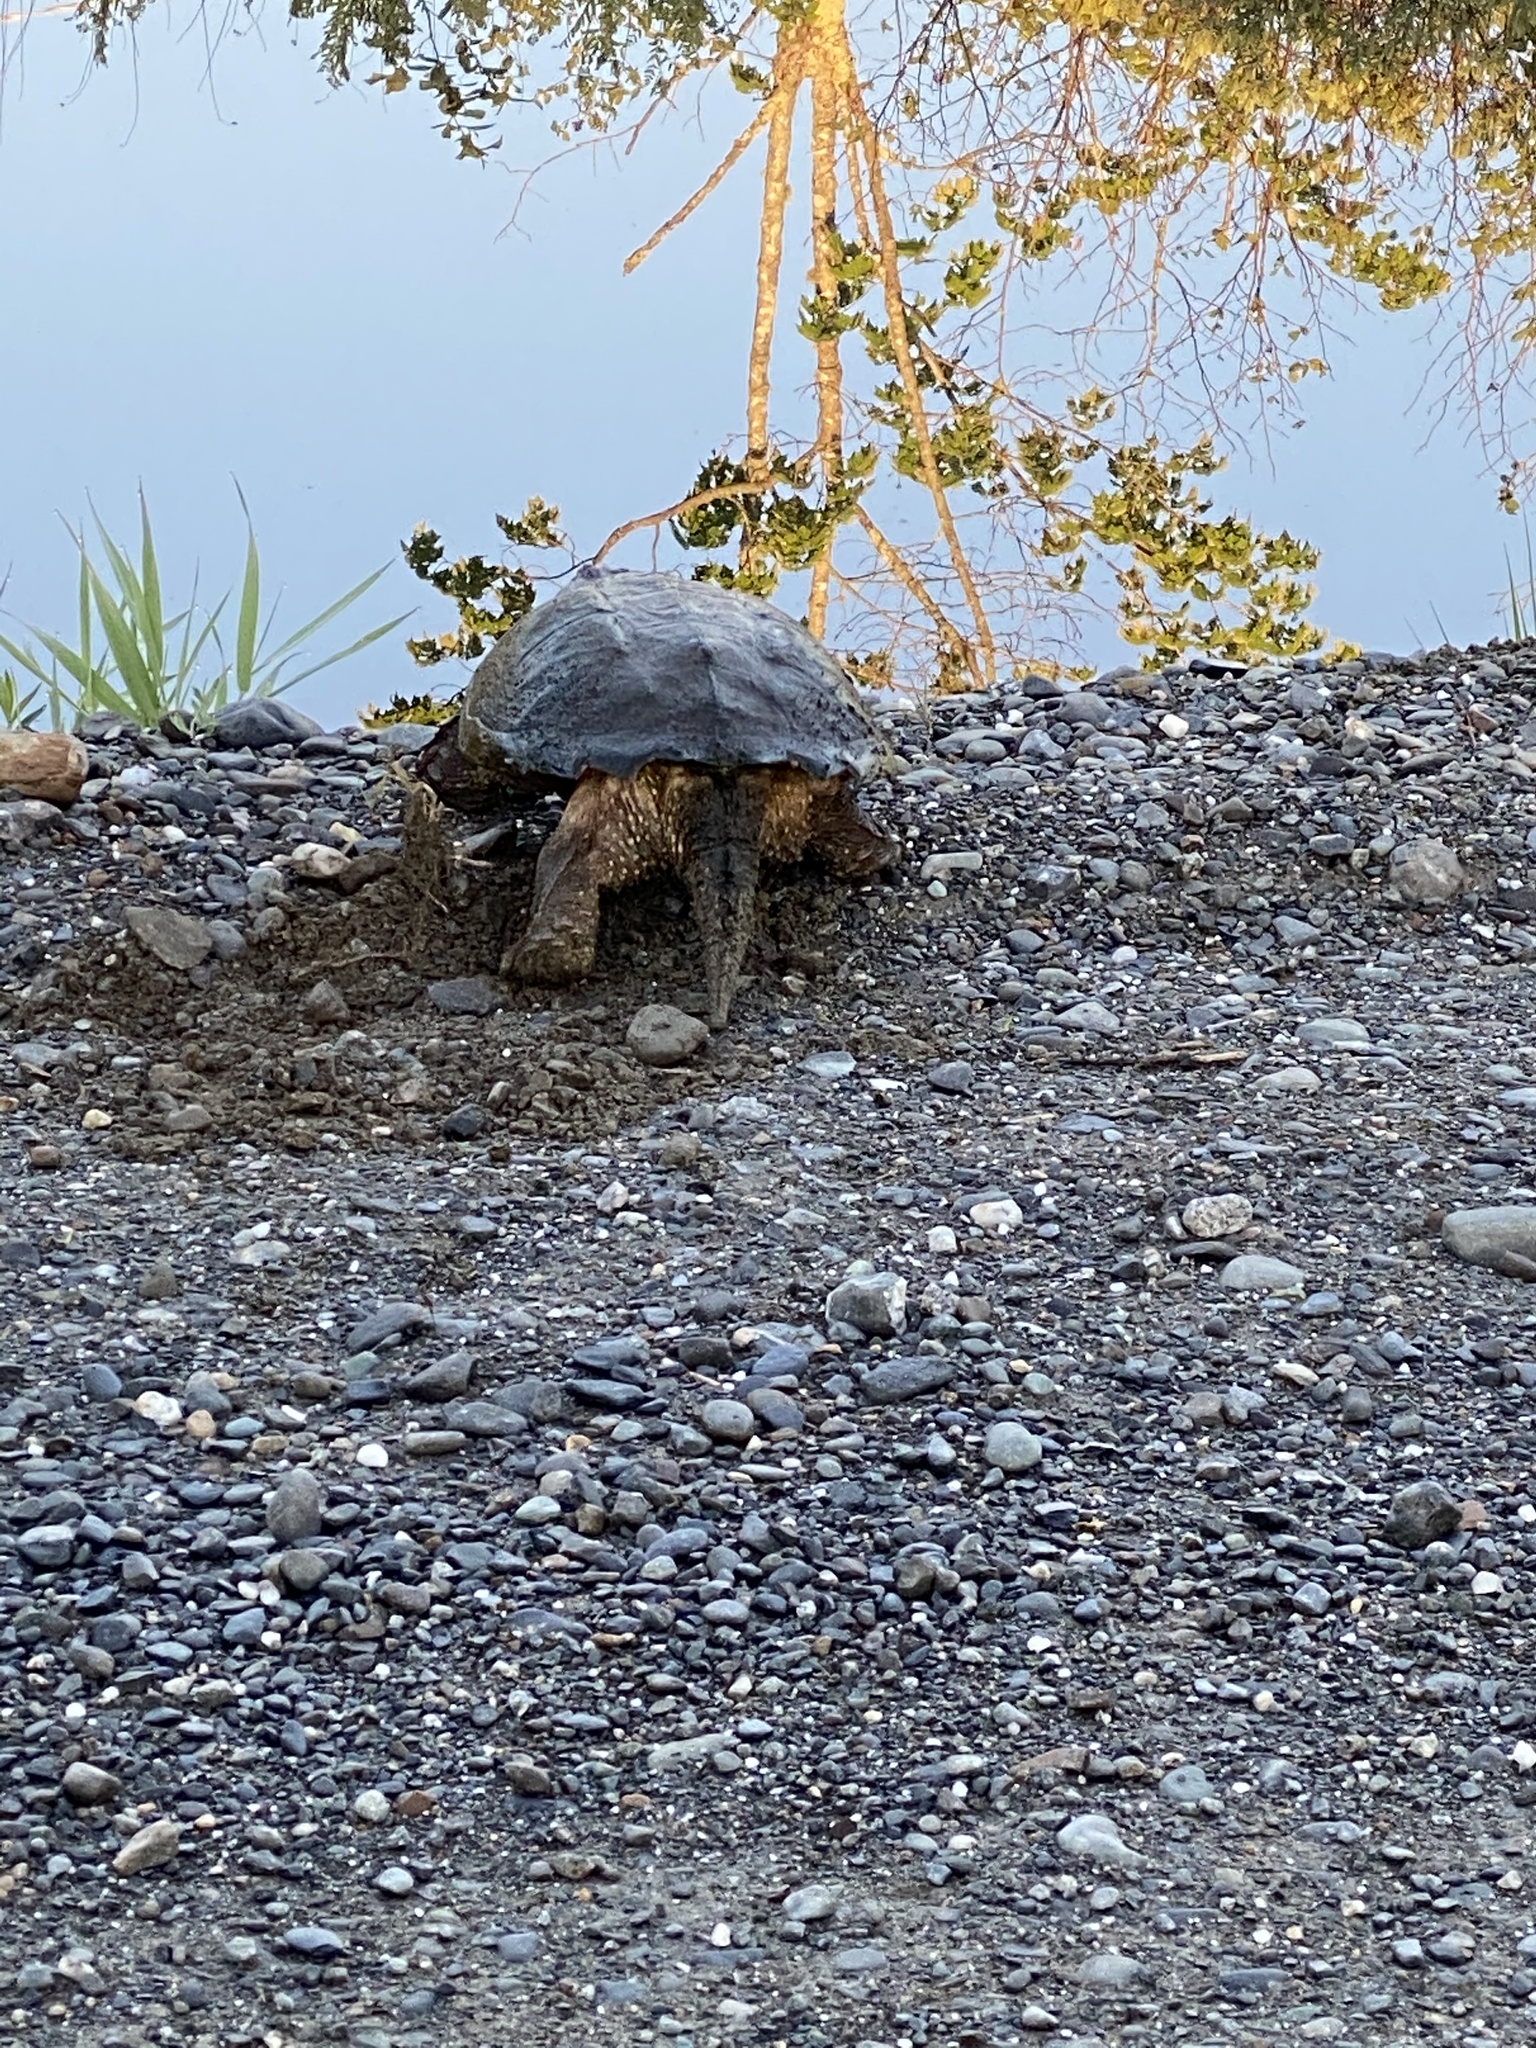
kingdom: Animalia
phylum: Chordata
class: Testudines
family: Chelydridae
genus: Chelydra
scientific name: Chelydra serpentina
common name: Common snapping turtle
